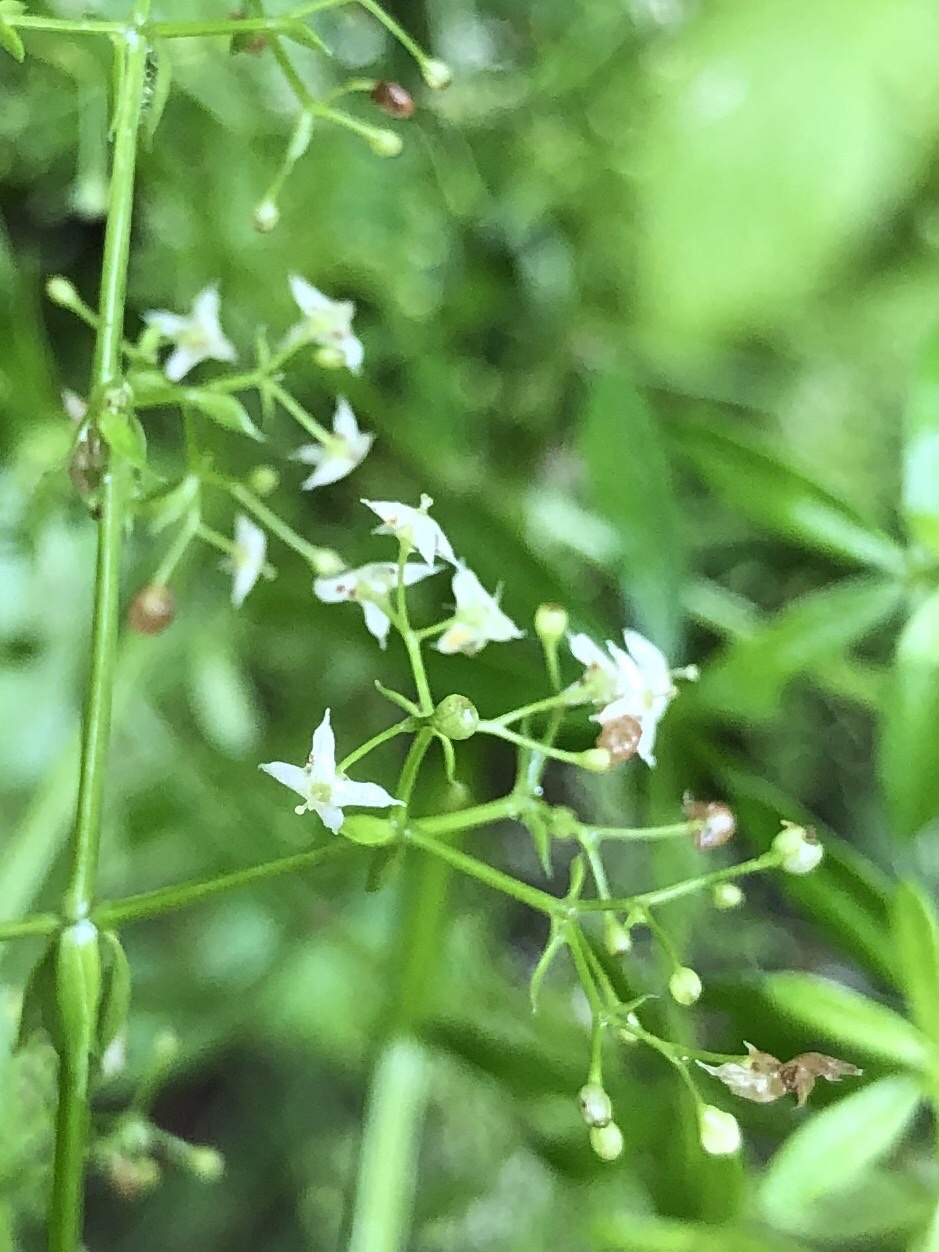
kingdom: Plantae
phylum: Tracheophyta
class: Magnoliopsida
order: Gentianales
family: Rubiaceae
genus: Galium
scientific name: Galium mollugo
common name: Hedge bedstraw
